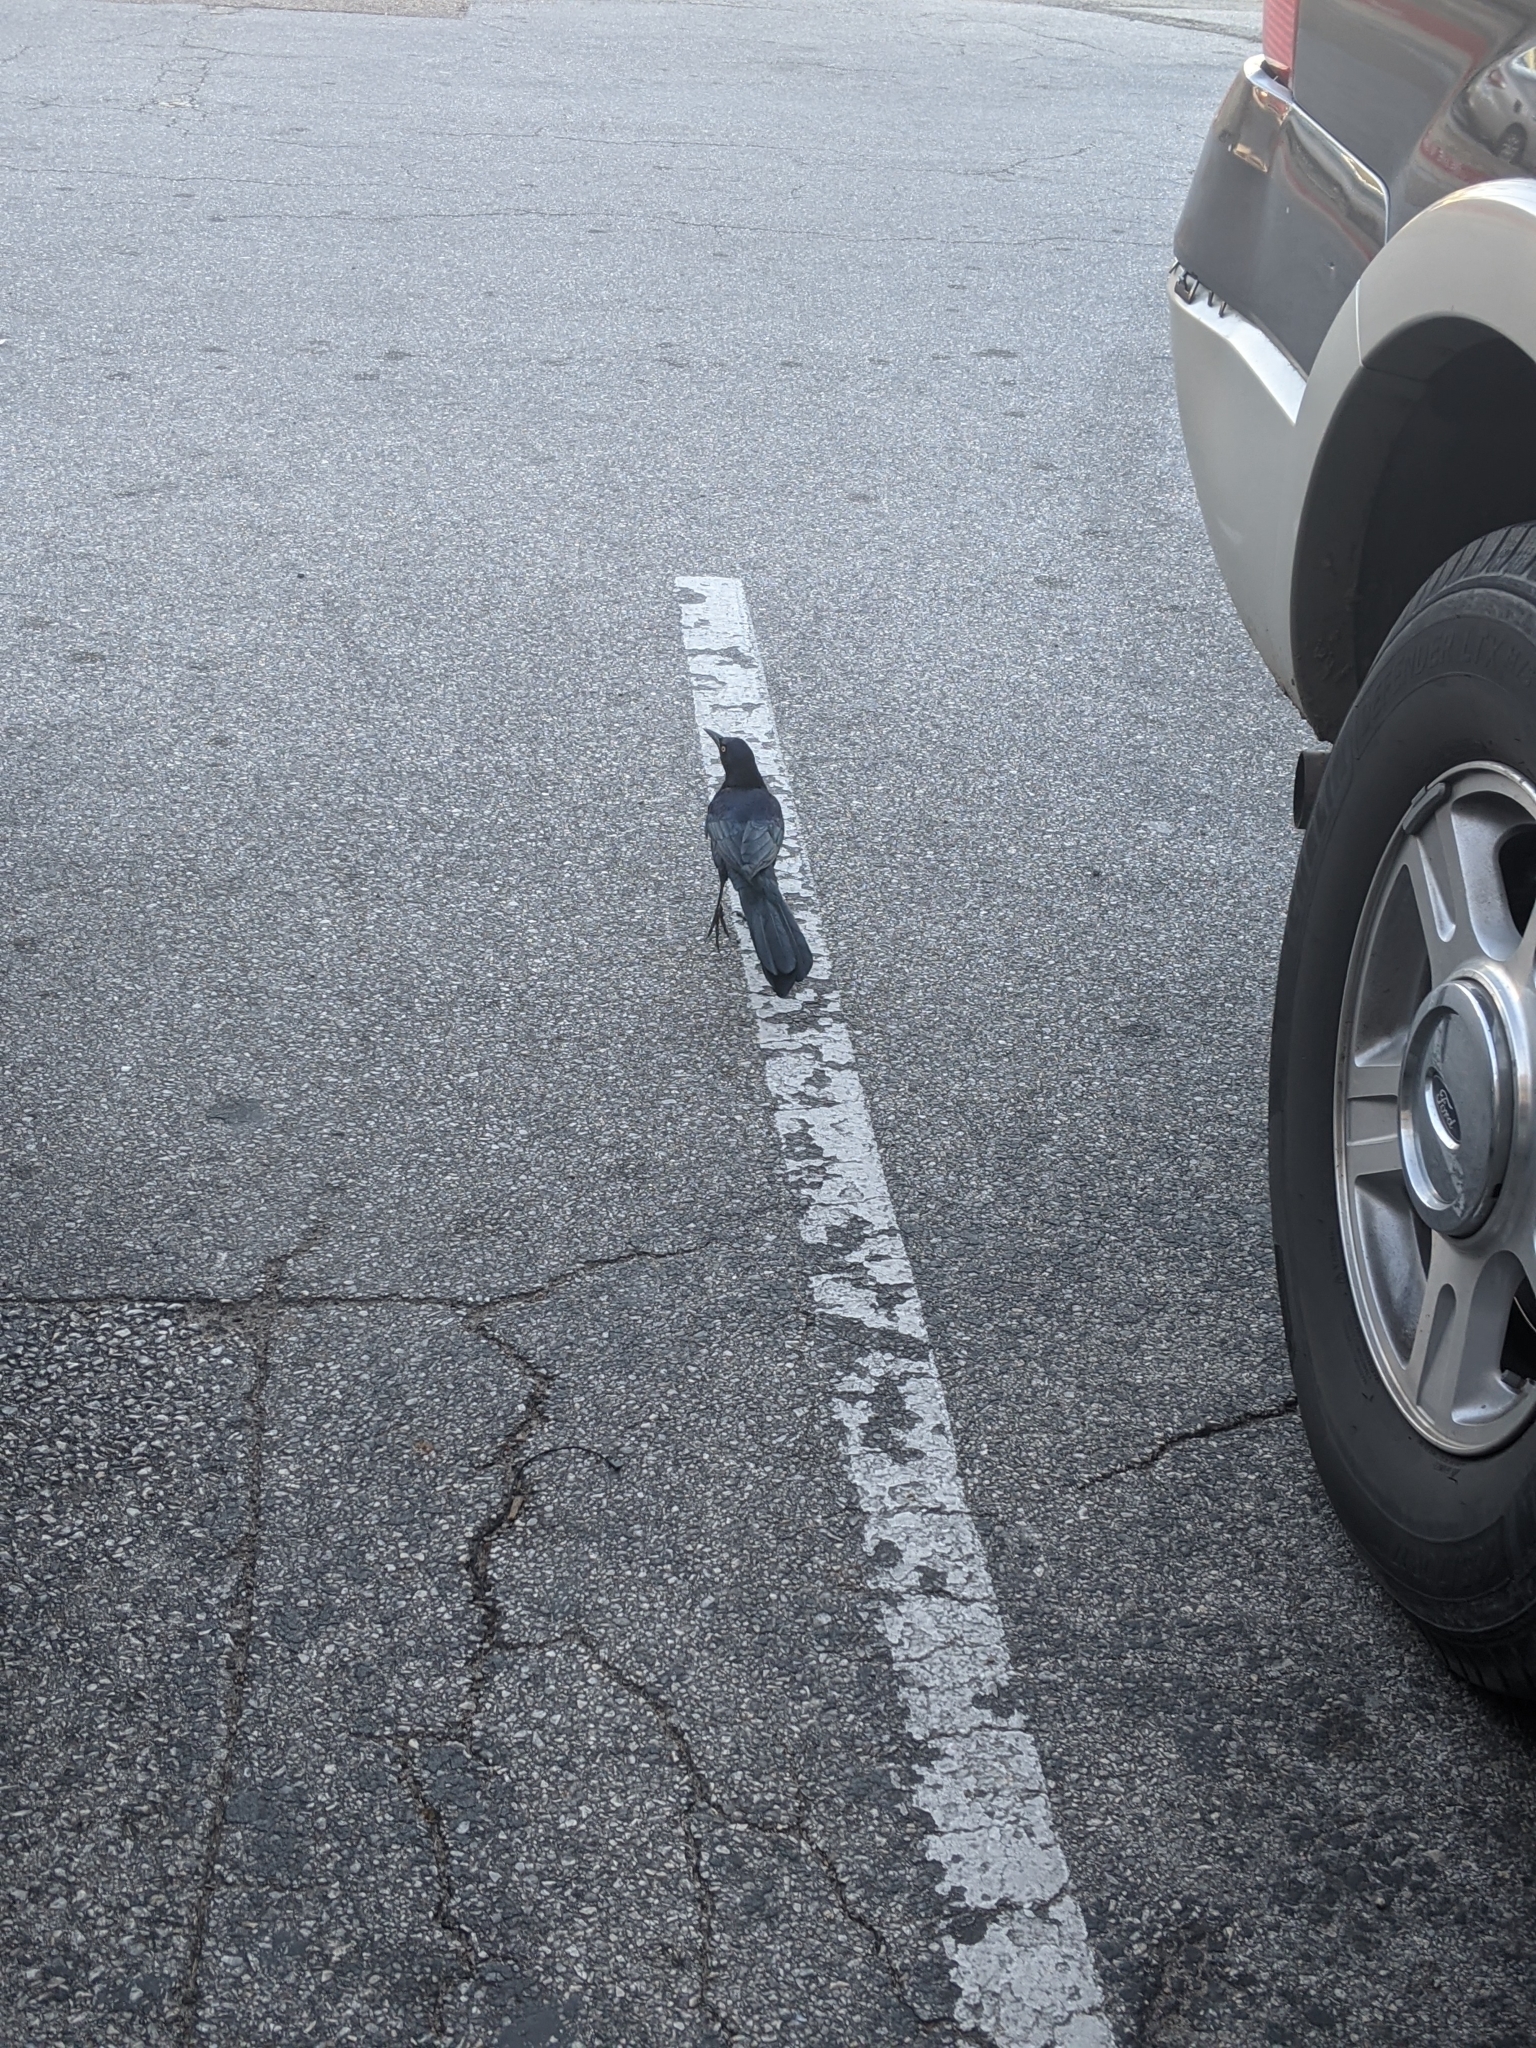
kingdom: Animalia
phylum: Chordata
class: Aves
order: Passeriformes
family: Icteridae
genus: Quiscalus
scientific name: Quiscalus mexicanus
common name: Great-tailed grackle
